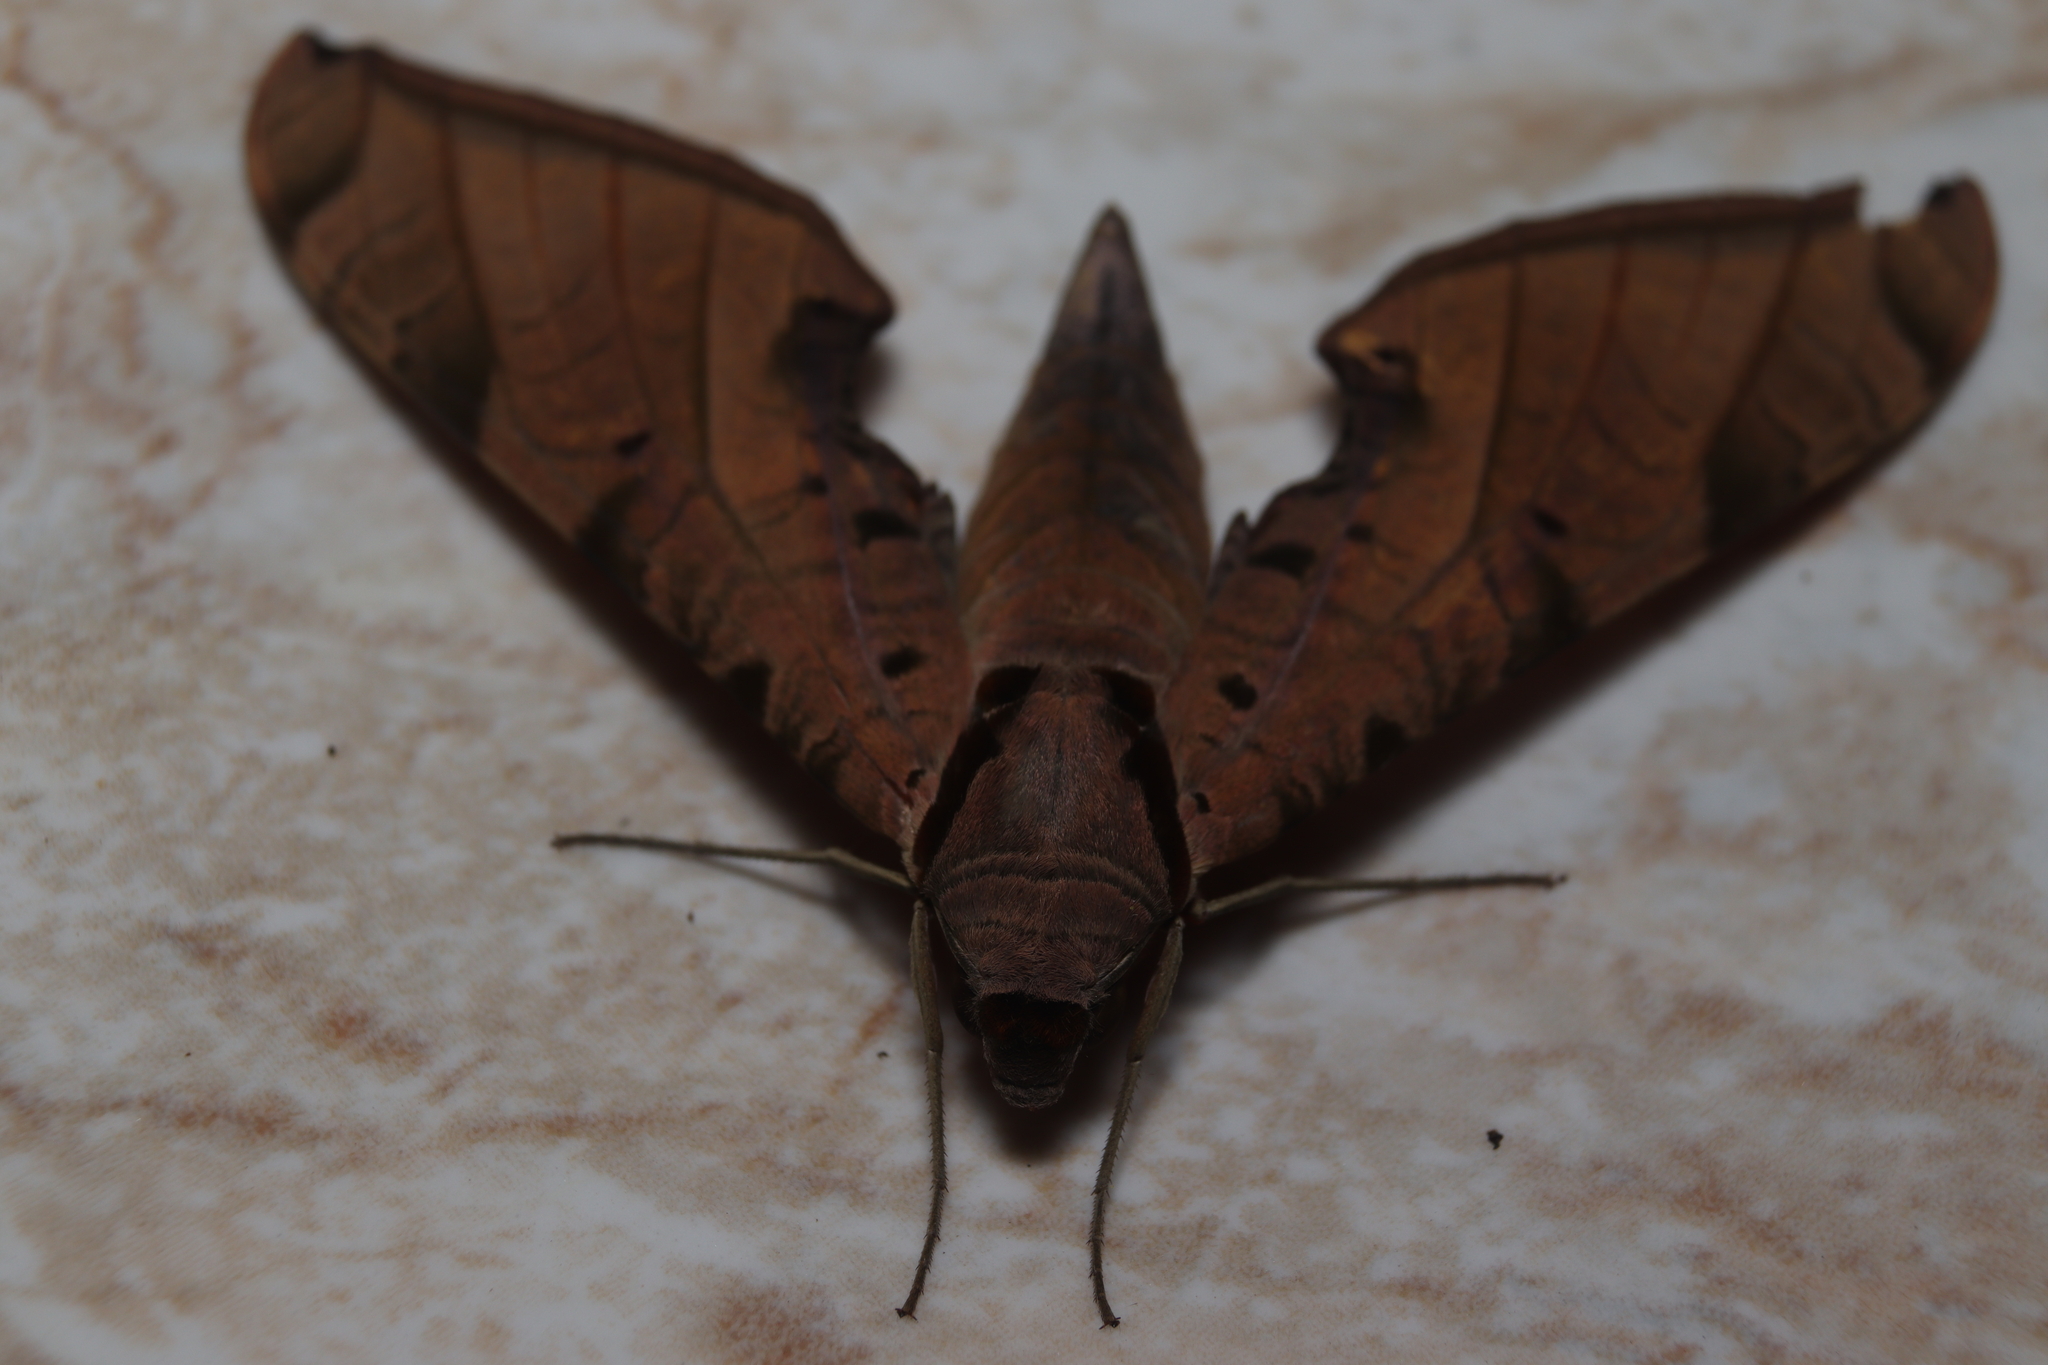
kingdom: Animalia
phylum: Arthropoda
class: Insecta
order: Lepidoptera
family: Sphingidae
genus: Protambulyx
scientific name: Protambulyx strigilis
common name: Streaked sphinx
